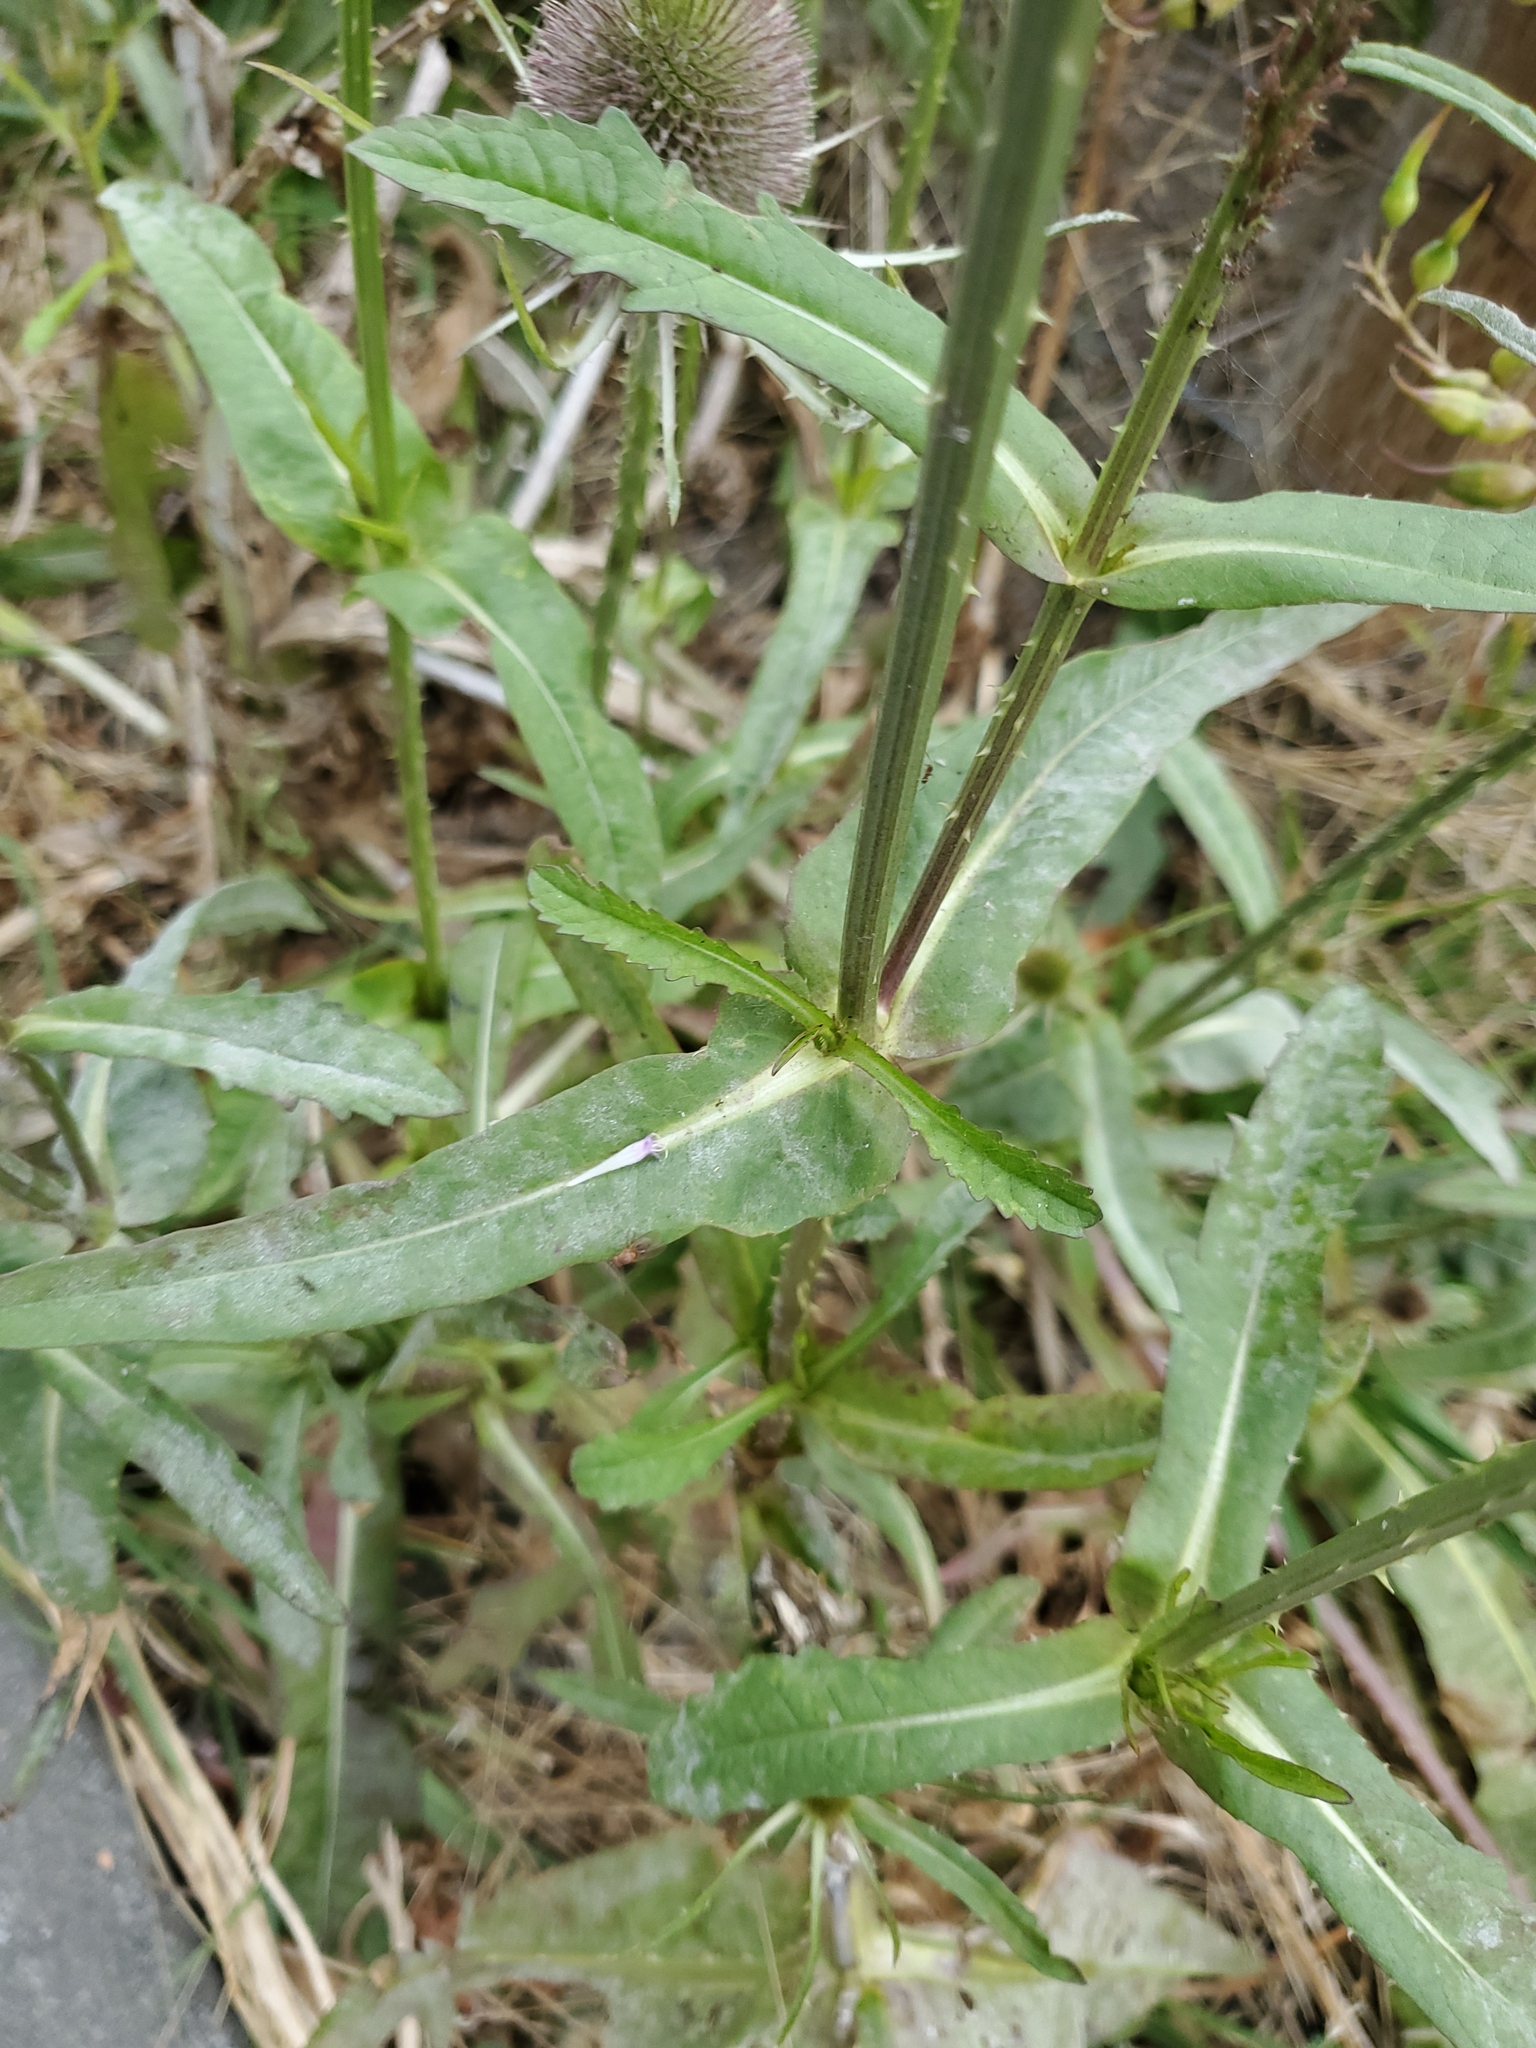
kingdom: Plantae
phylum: Tracheophyta
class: Magnoliopsida
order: Dipsacales
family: Caprifoliaceae
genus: Dipsacus
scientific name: Dipsacus fullonum
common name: Teasel
